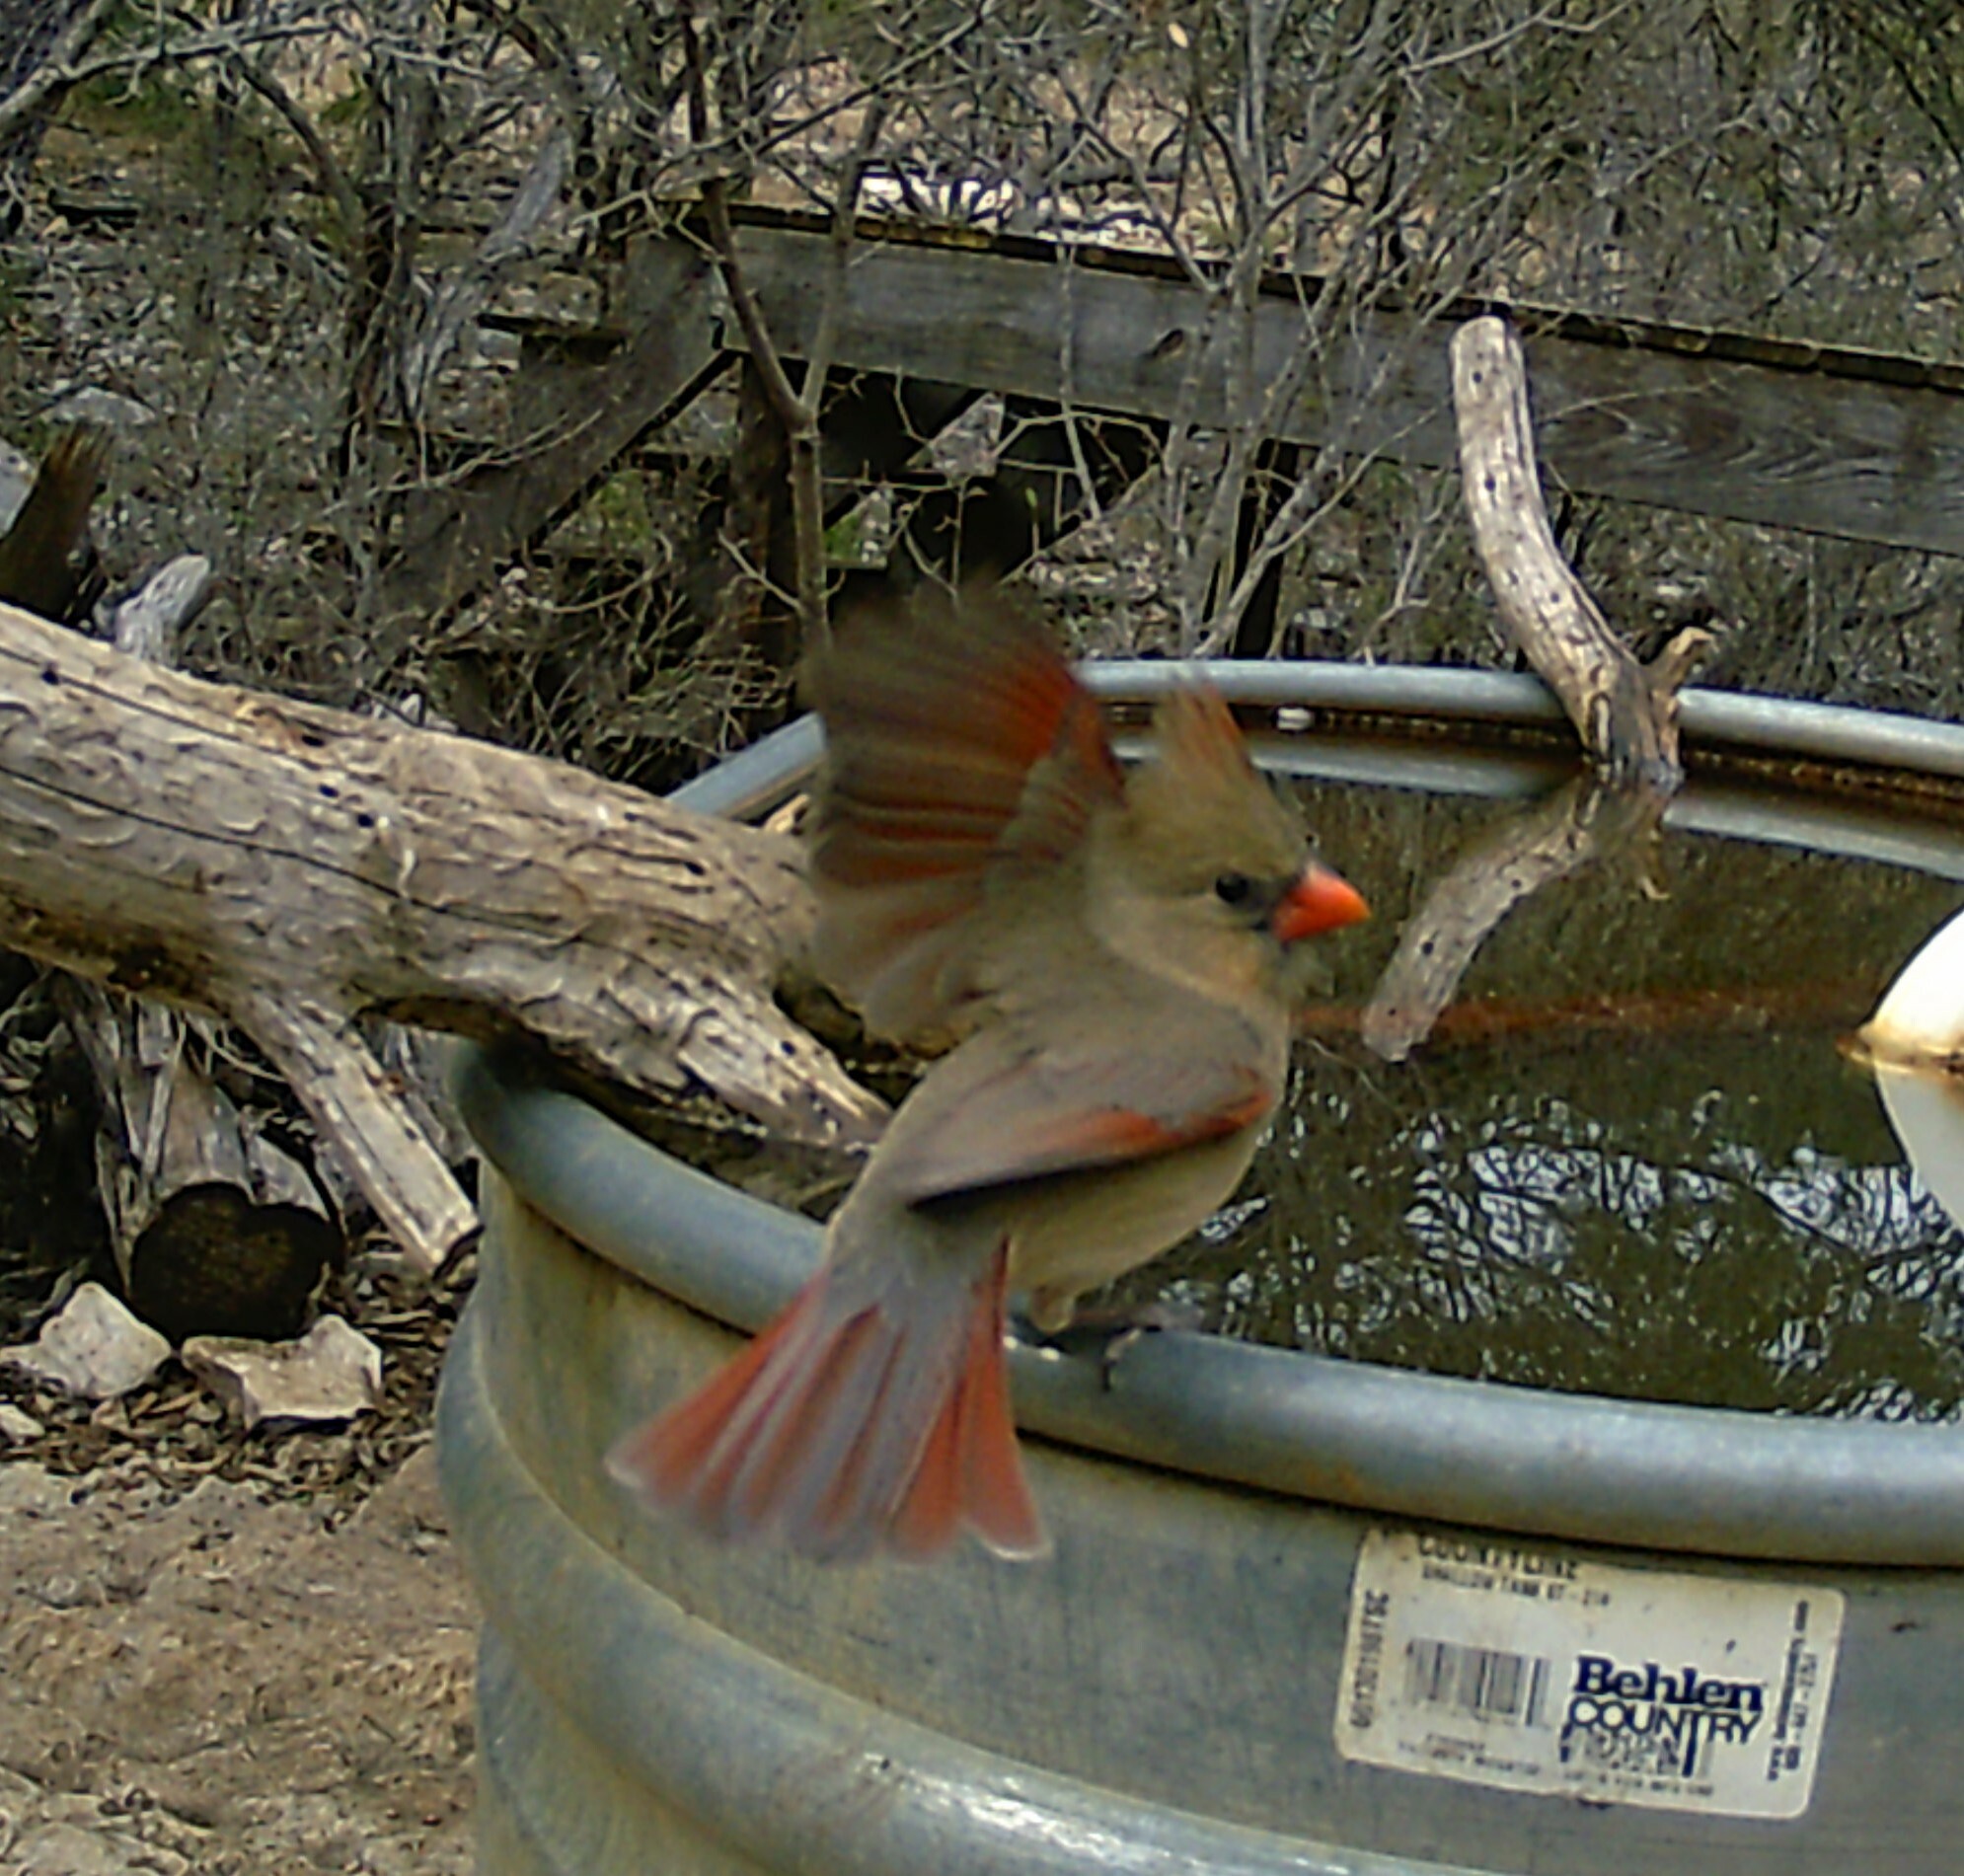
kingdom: Animalia
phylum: Chordata
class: Aves
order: Passeriformes
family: Cardinalidae
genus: Cardinalis
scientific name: Cardinalis cardinalis
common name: Northern cardinal
